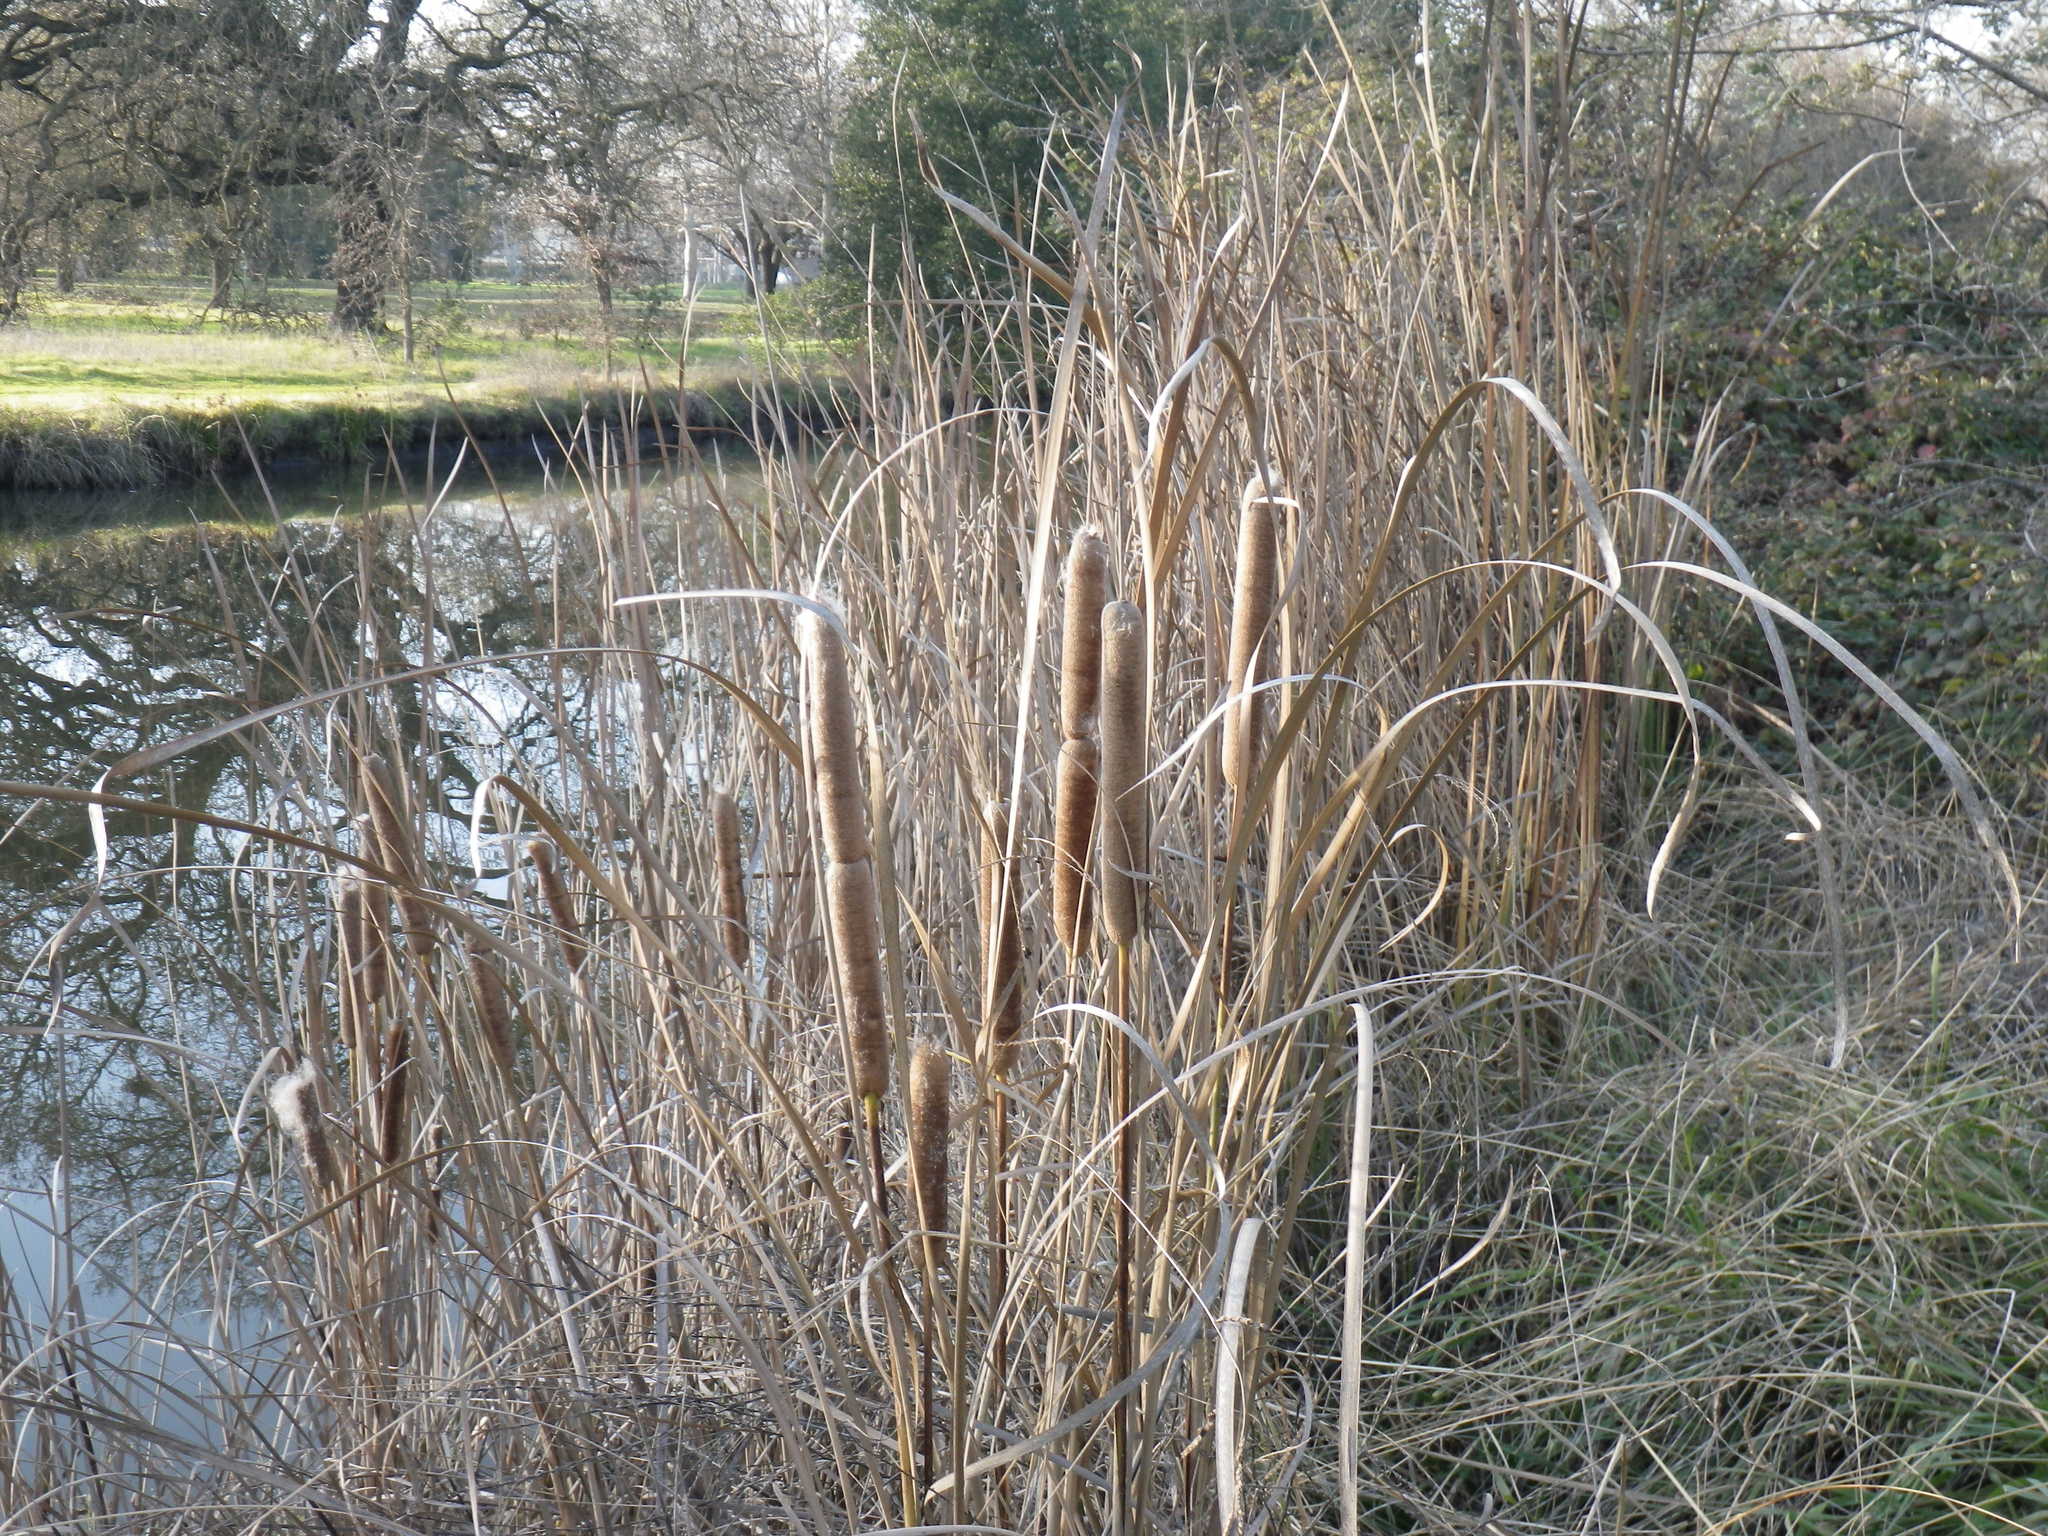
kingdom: Plantae
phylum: Tracheophyta
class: Liliopsida
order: Poales
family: Typhaceae
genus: Typha
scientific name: Typha latifolia
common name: Broadleaf cattail
